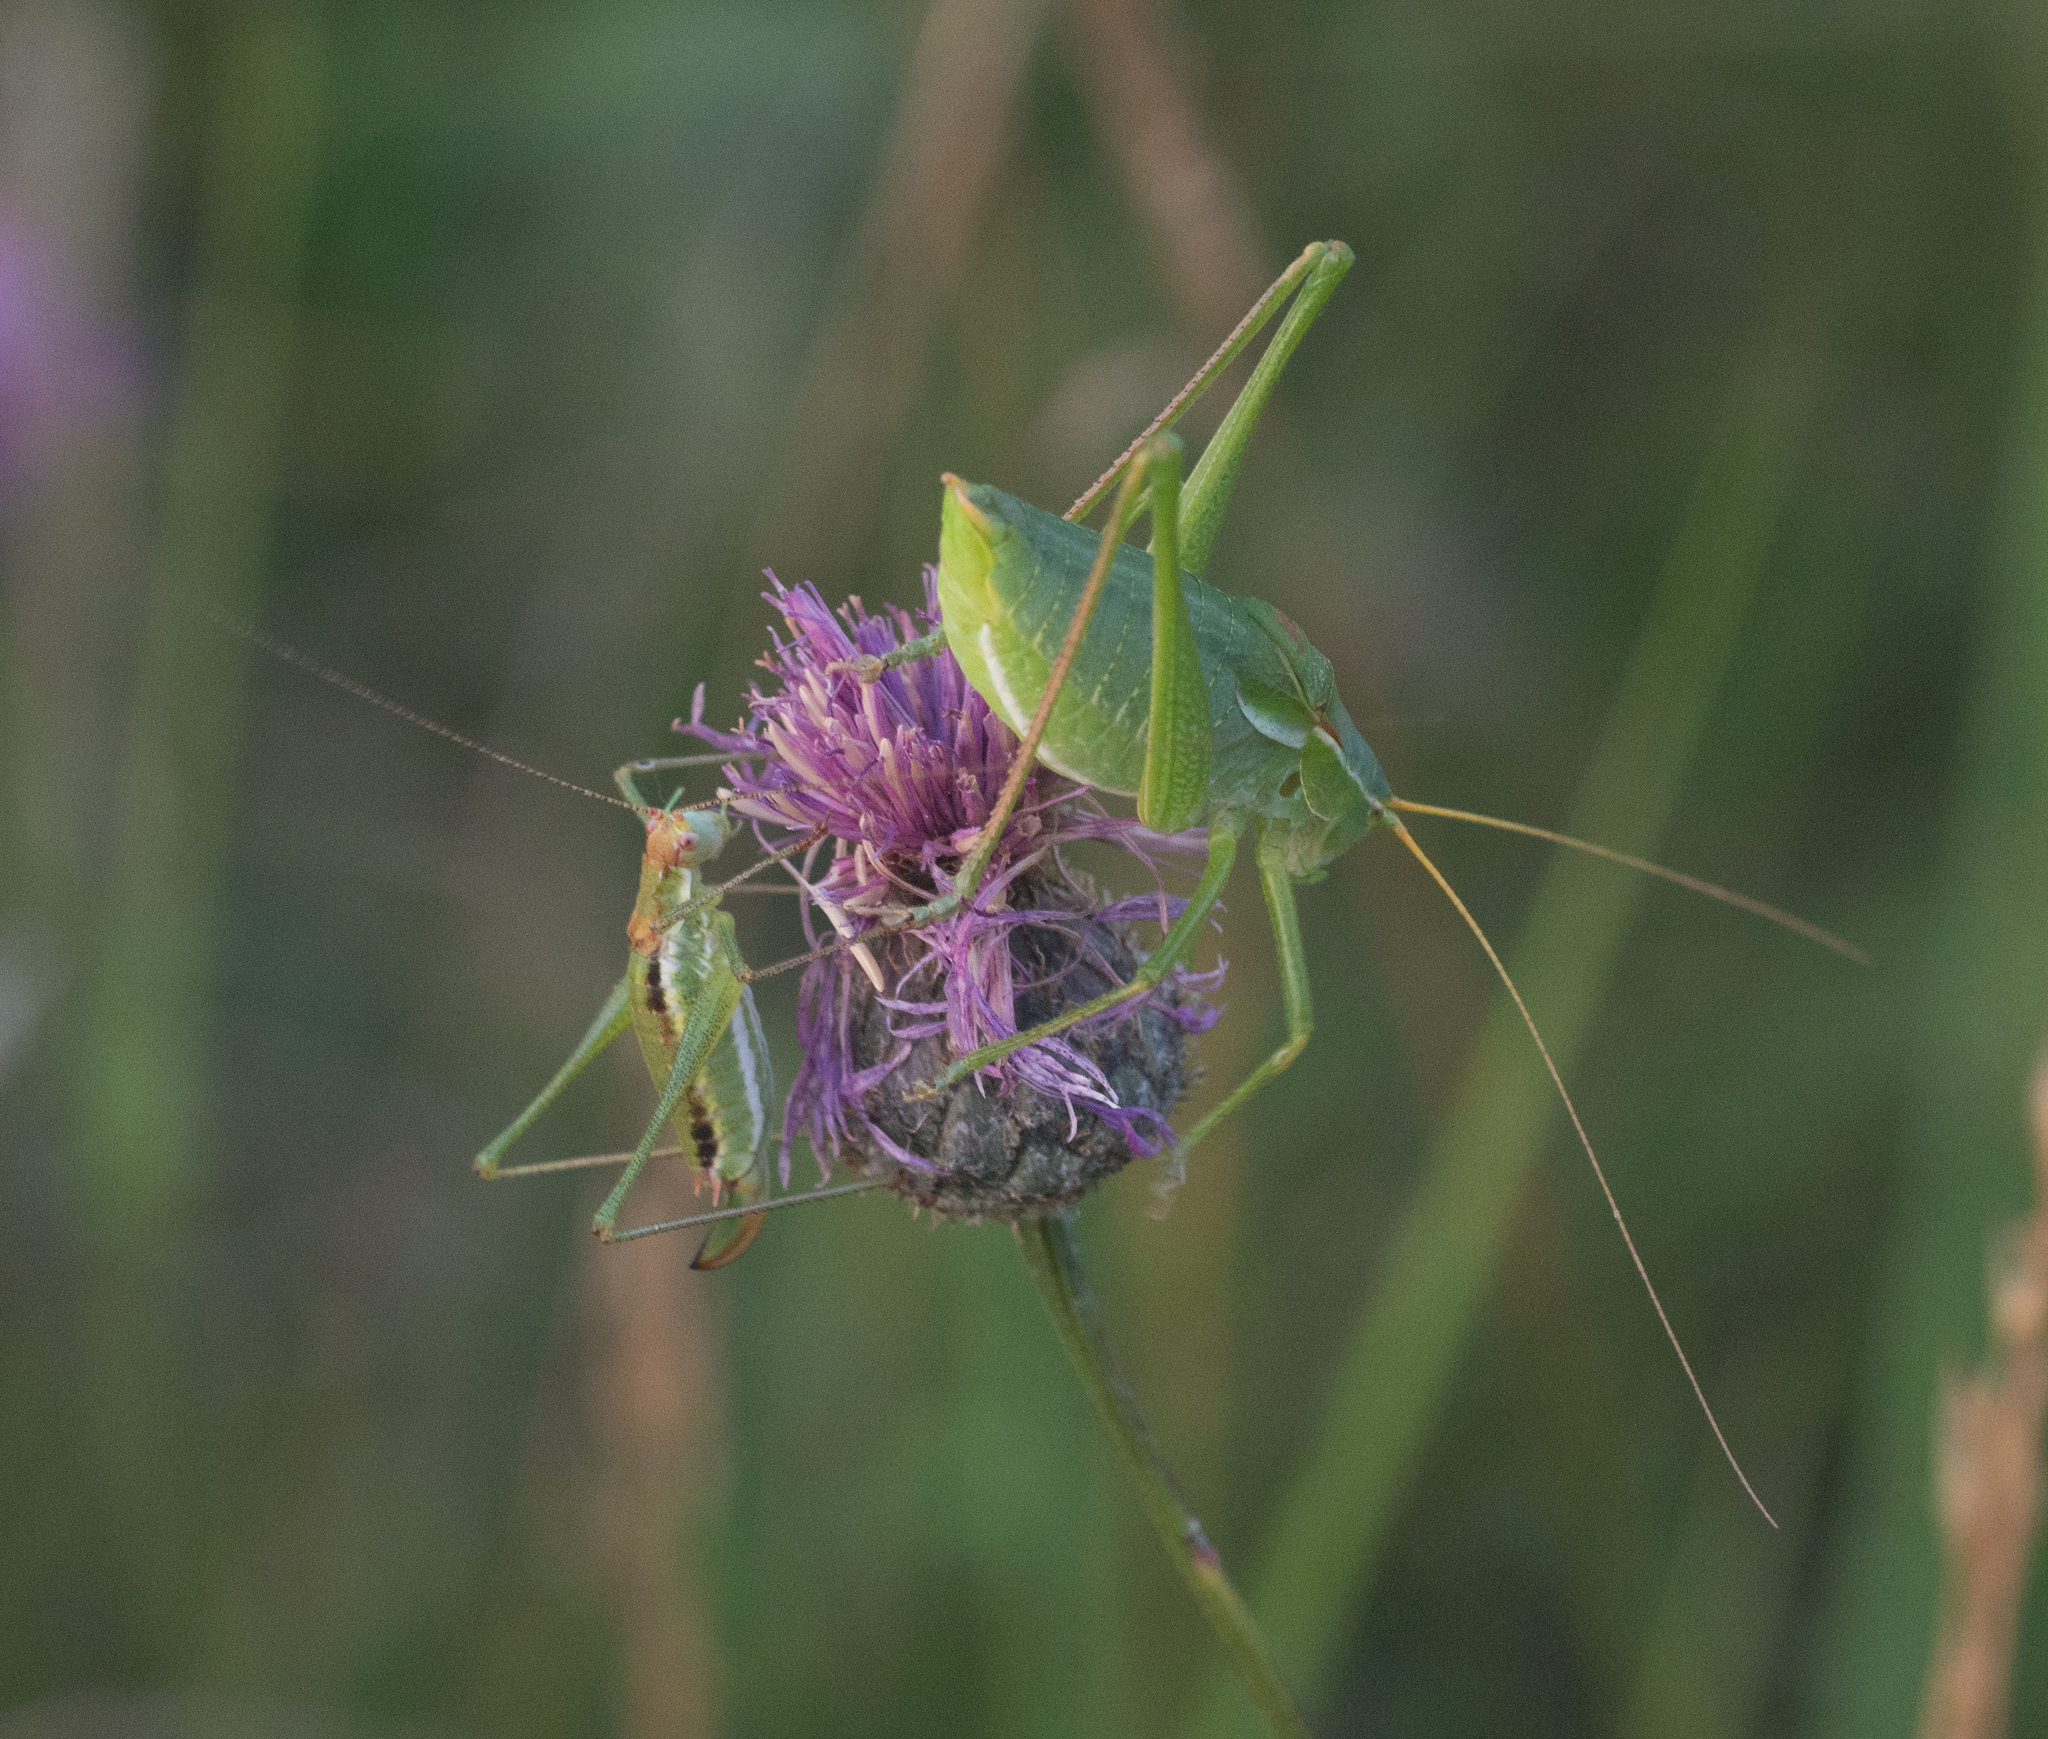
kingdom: Animalia
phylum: Arthropoda
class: Insecta
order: Orthoptera
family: Tettigoniidae
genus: Isophya
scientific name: Isophya costata
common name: Keeled plump bush-cricket
